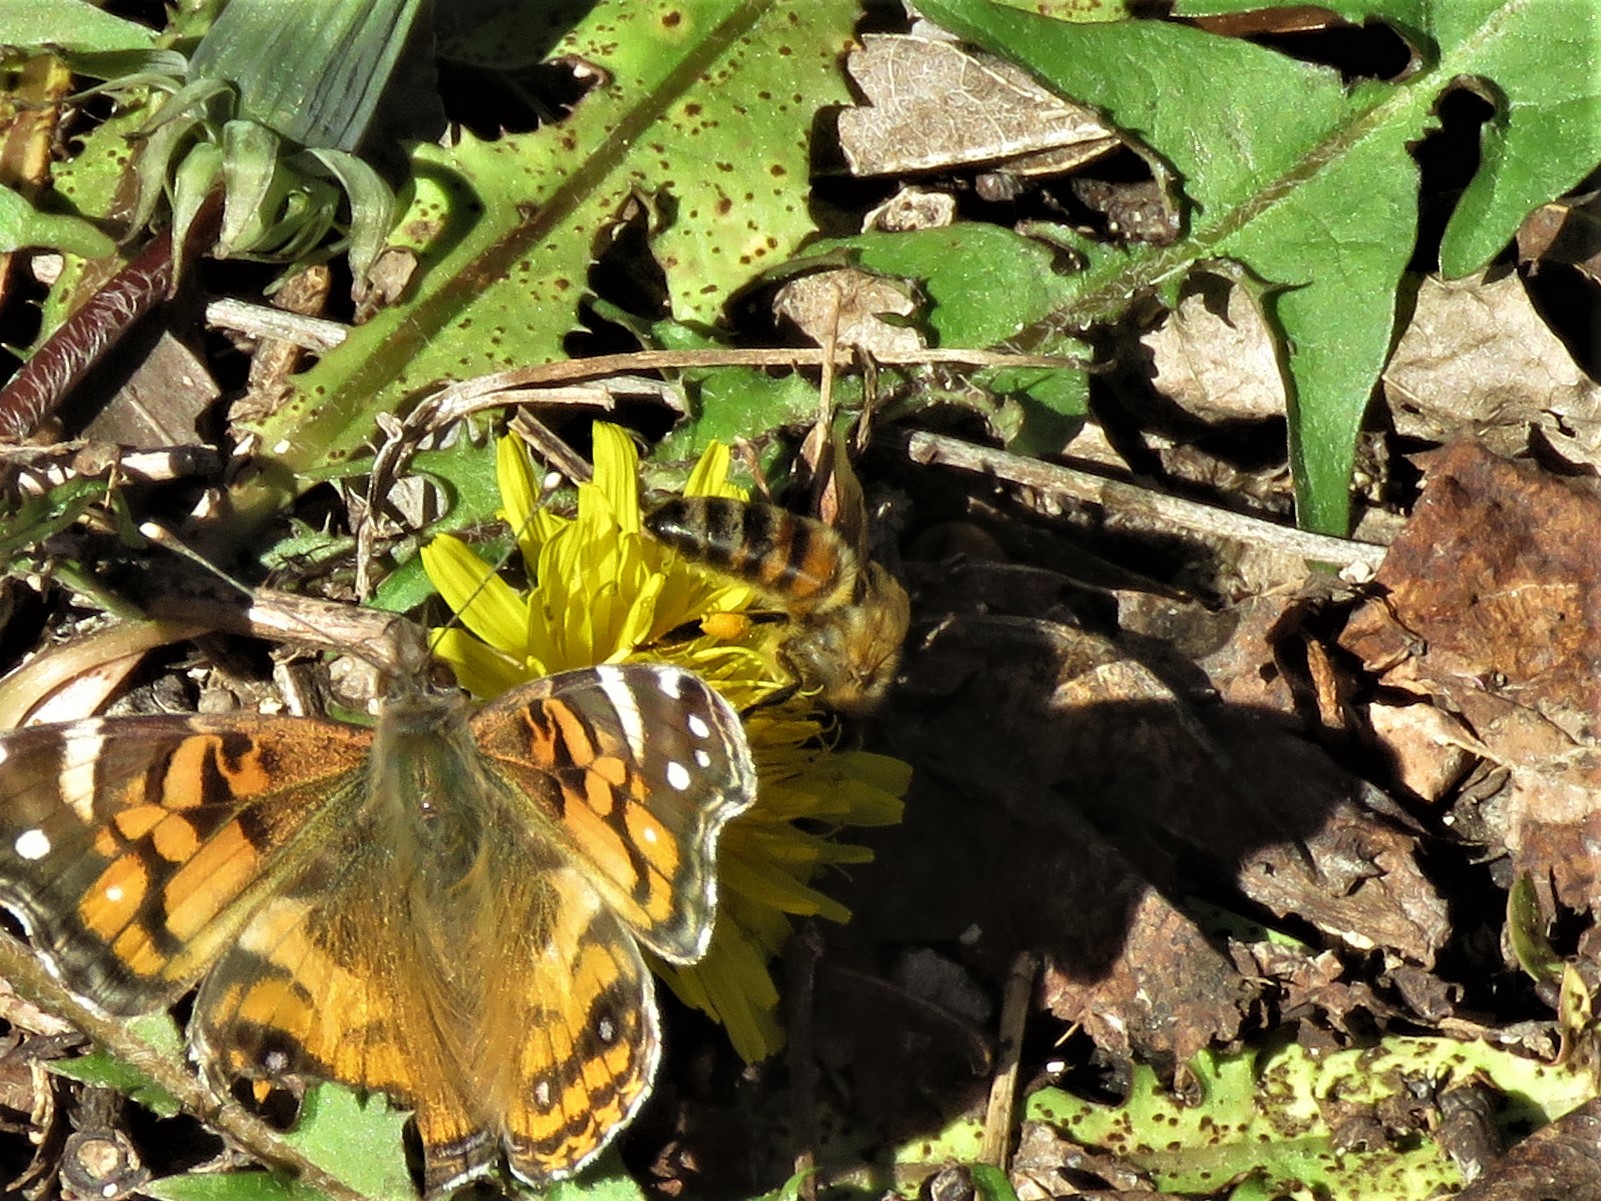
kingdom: Animalia
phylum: Arthropoda
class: Insecta
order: Hymenoptera
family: Apidae
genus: Apis
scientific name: Apis mellifera
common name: Honey bee
